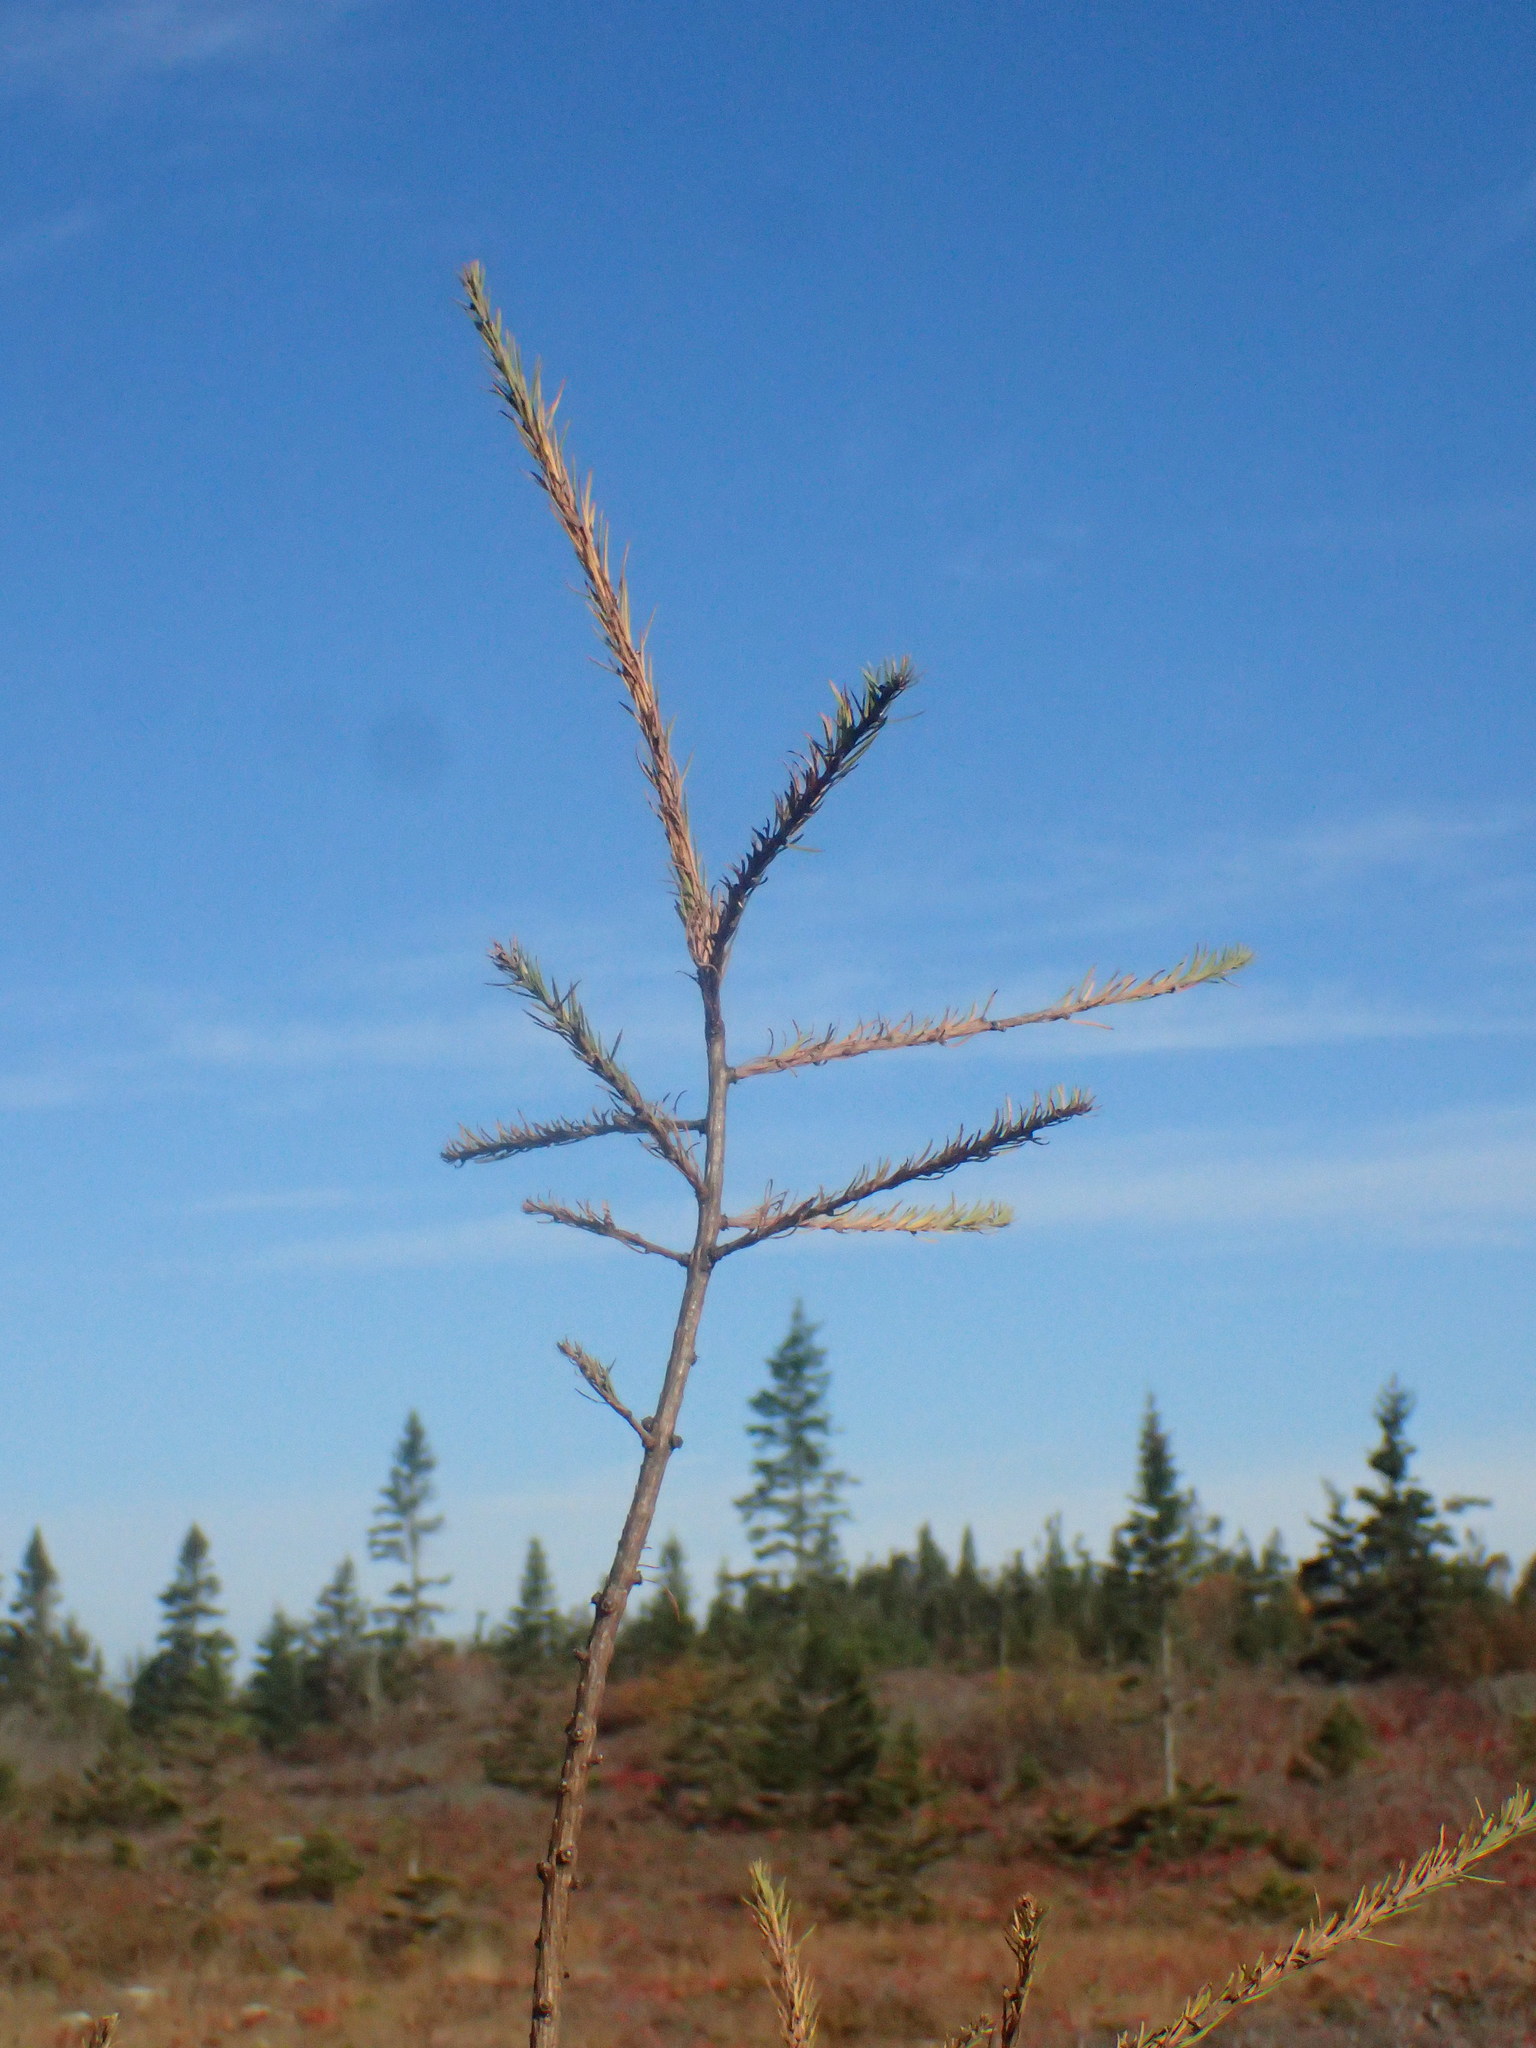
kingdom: Plantae
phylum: Tracheophyta
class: Pinopsida
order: Pinales
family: Pinaceae
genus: Larix
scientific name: Larix laricina
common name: American larch
